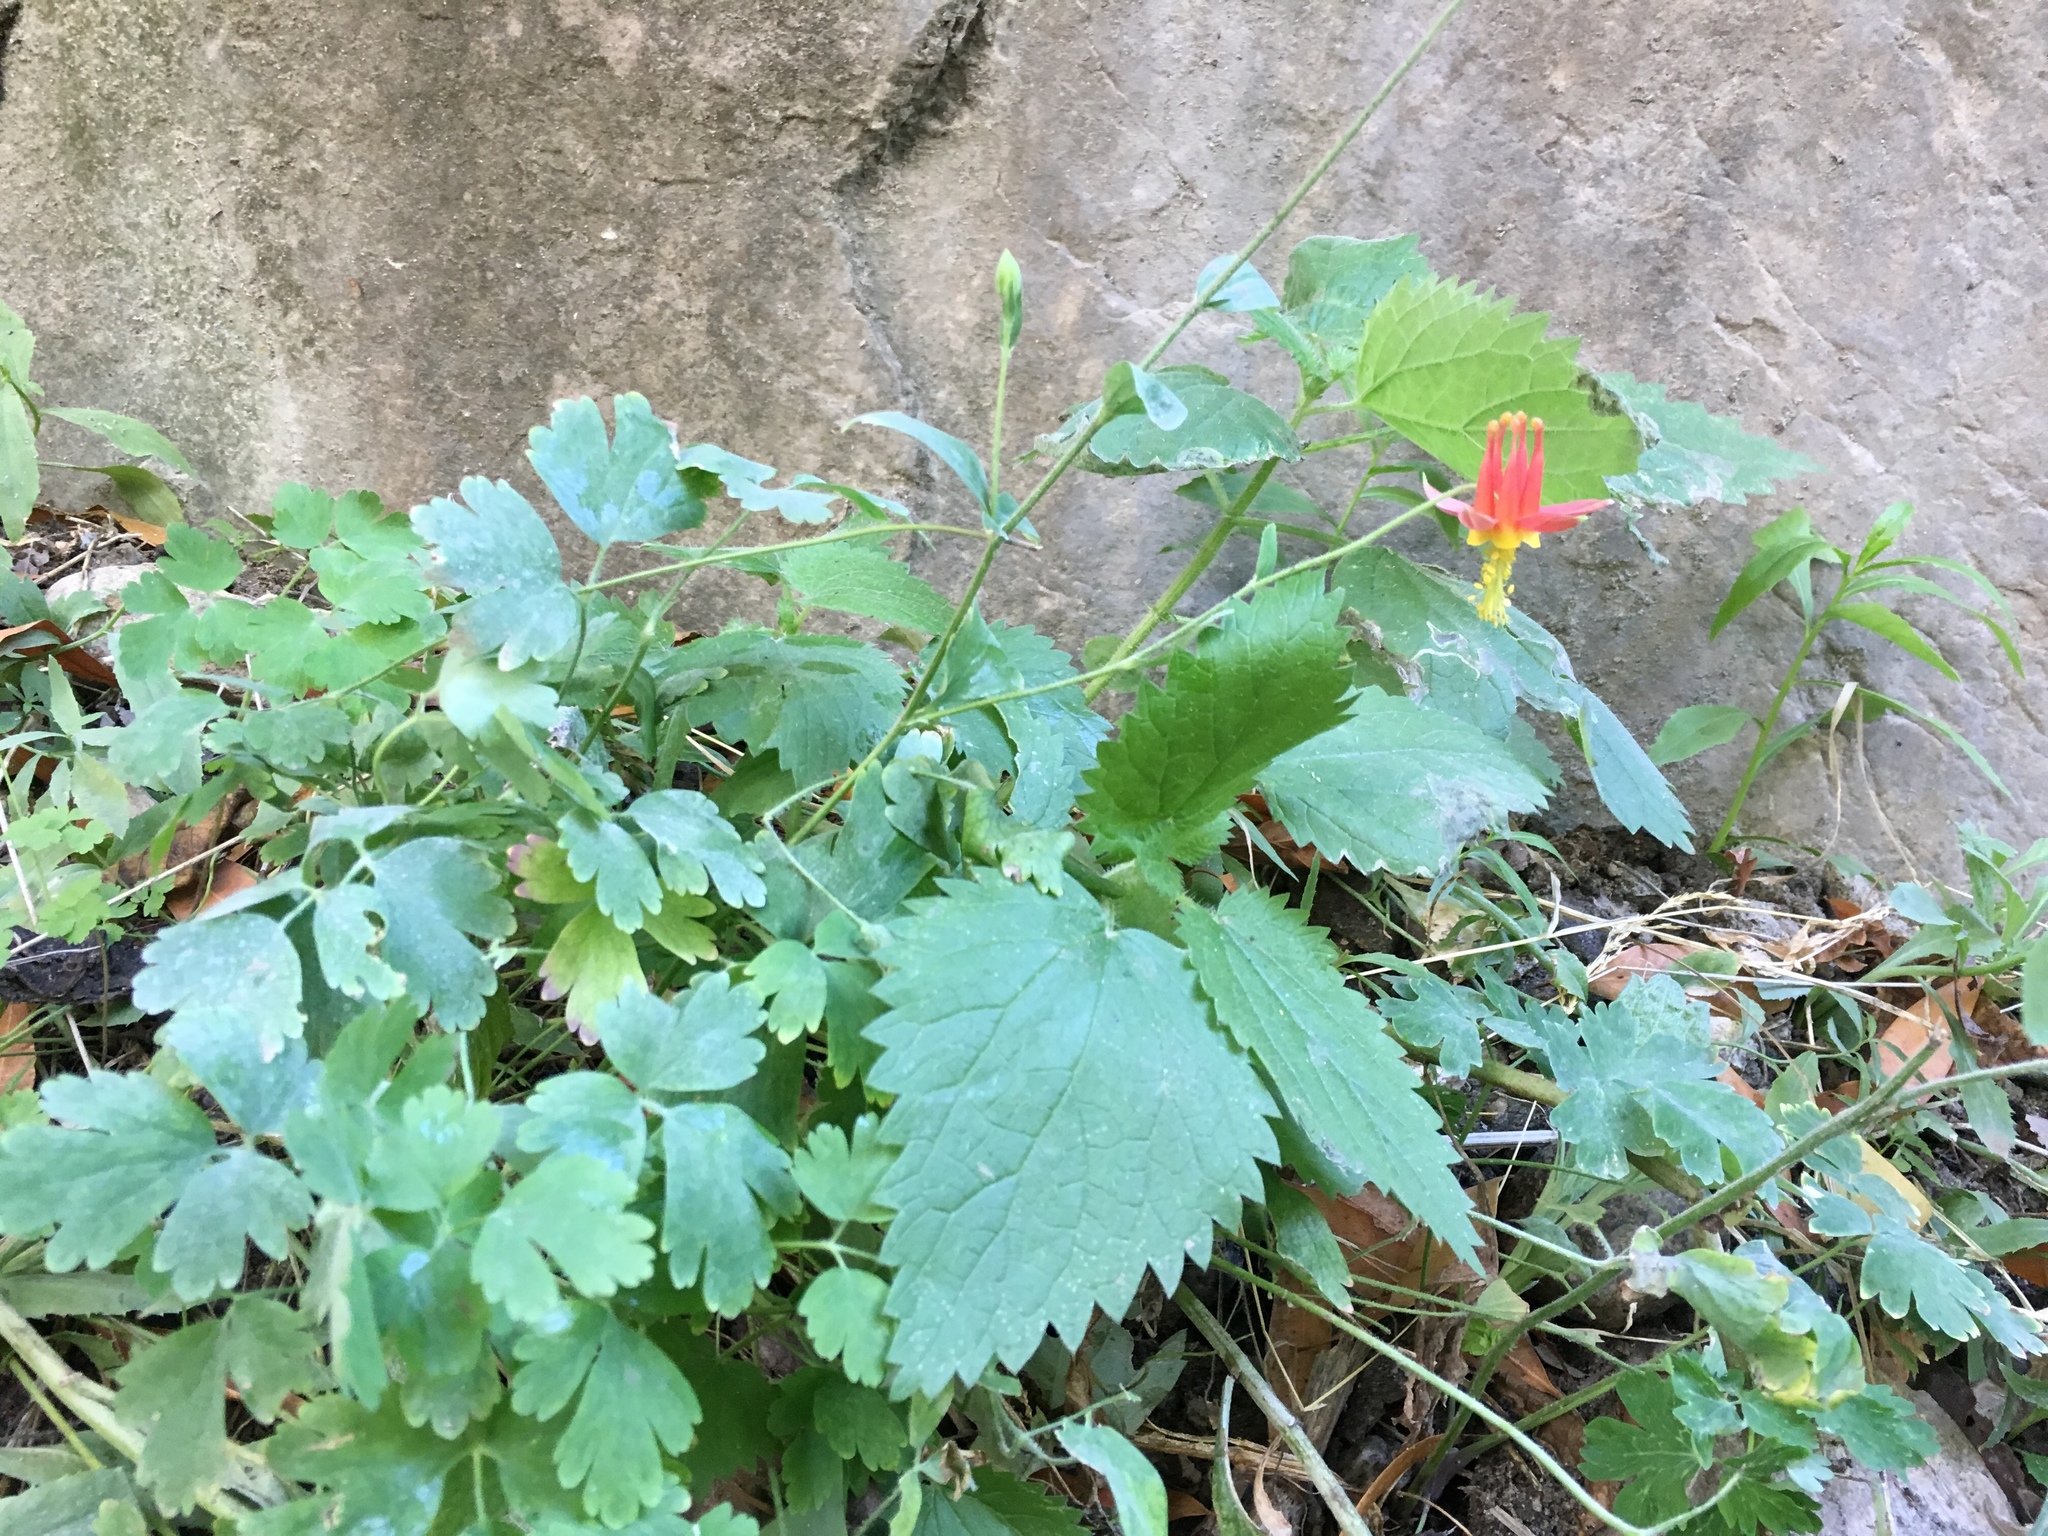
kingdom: Plantae
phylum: Tracheophyta
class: Magnoliopsida
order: Ranunculales
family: Ranunculaceae
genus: Aquilegia
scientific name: Aquilegia formosa
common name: Sitka columbine
